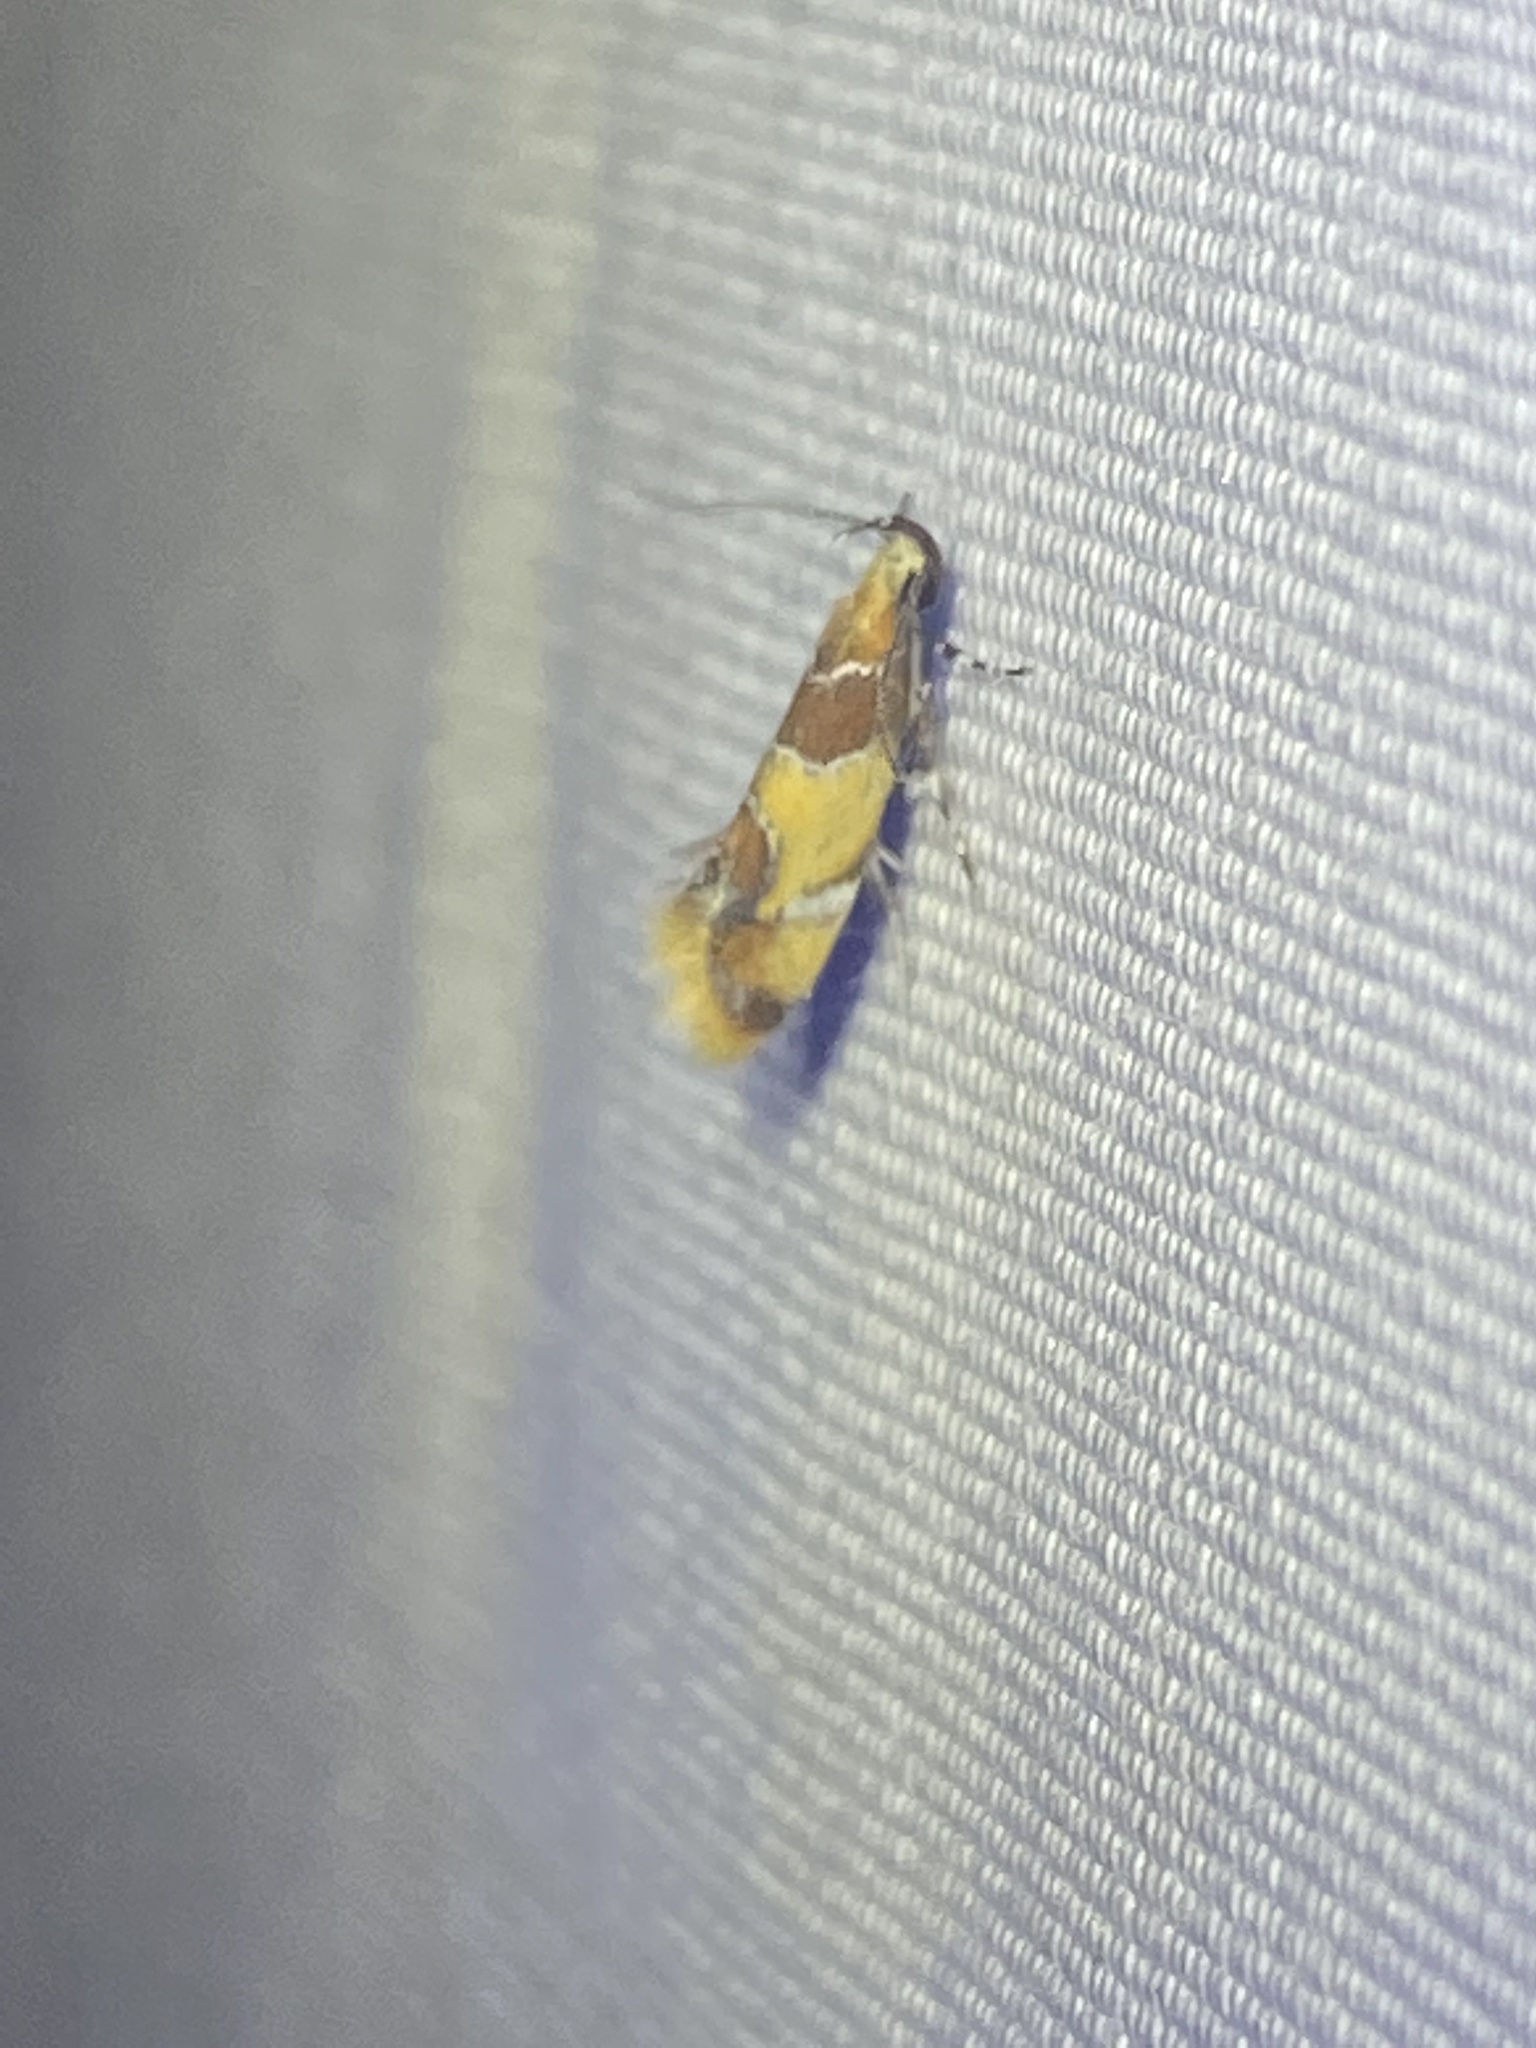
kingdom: Animalia
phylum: Arthropoda
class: Insecta
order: Lepidoptera
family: Oecophoridae
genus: Callima
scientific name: Callima argenticinctella
